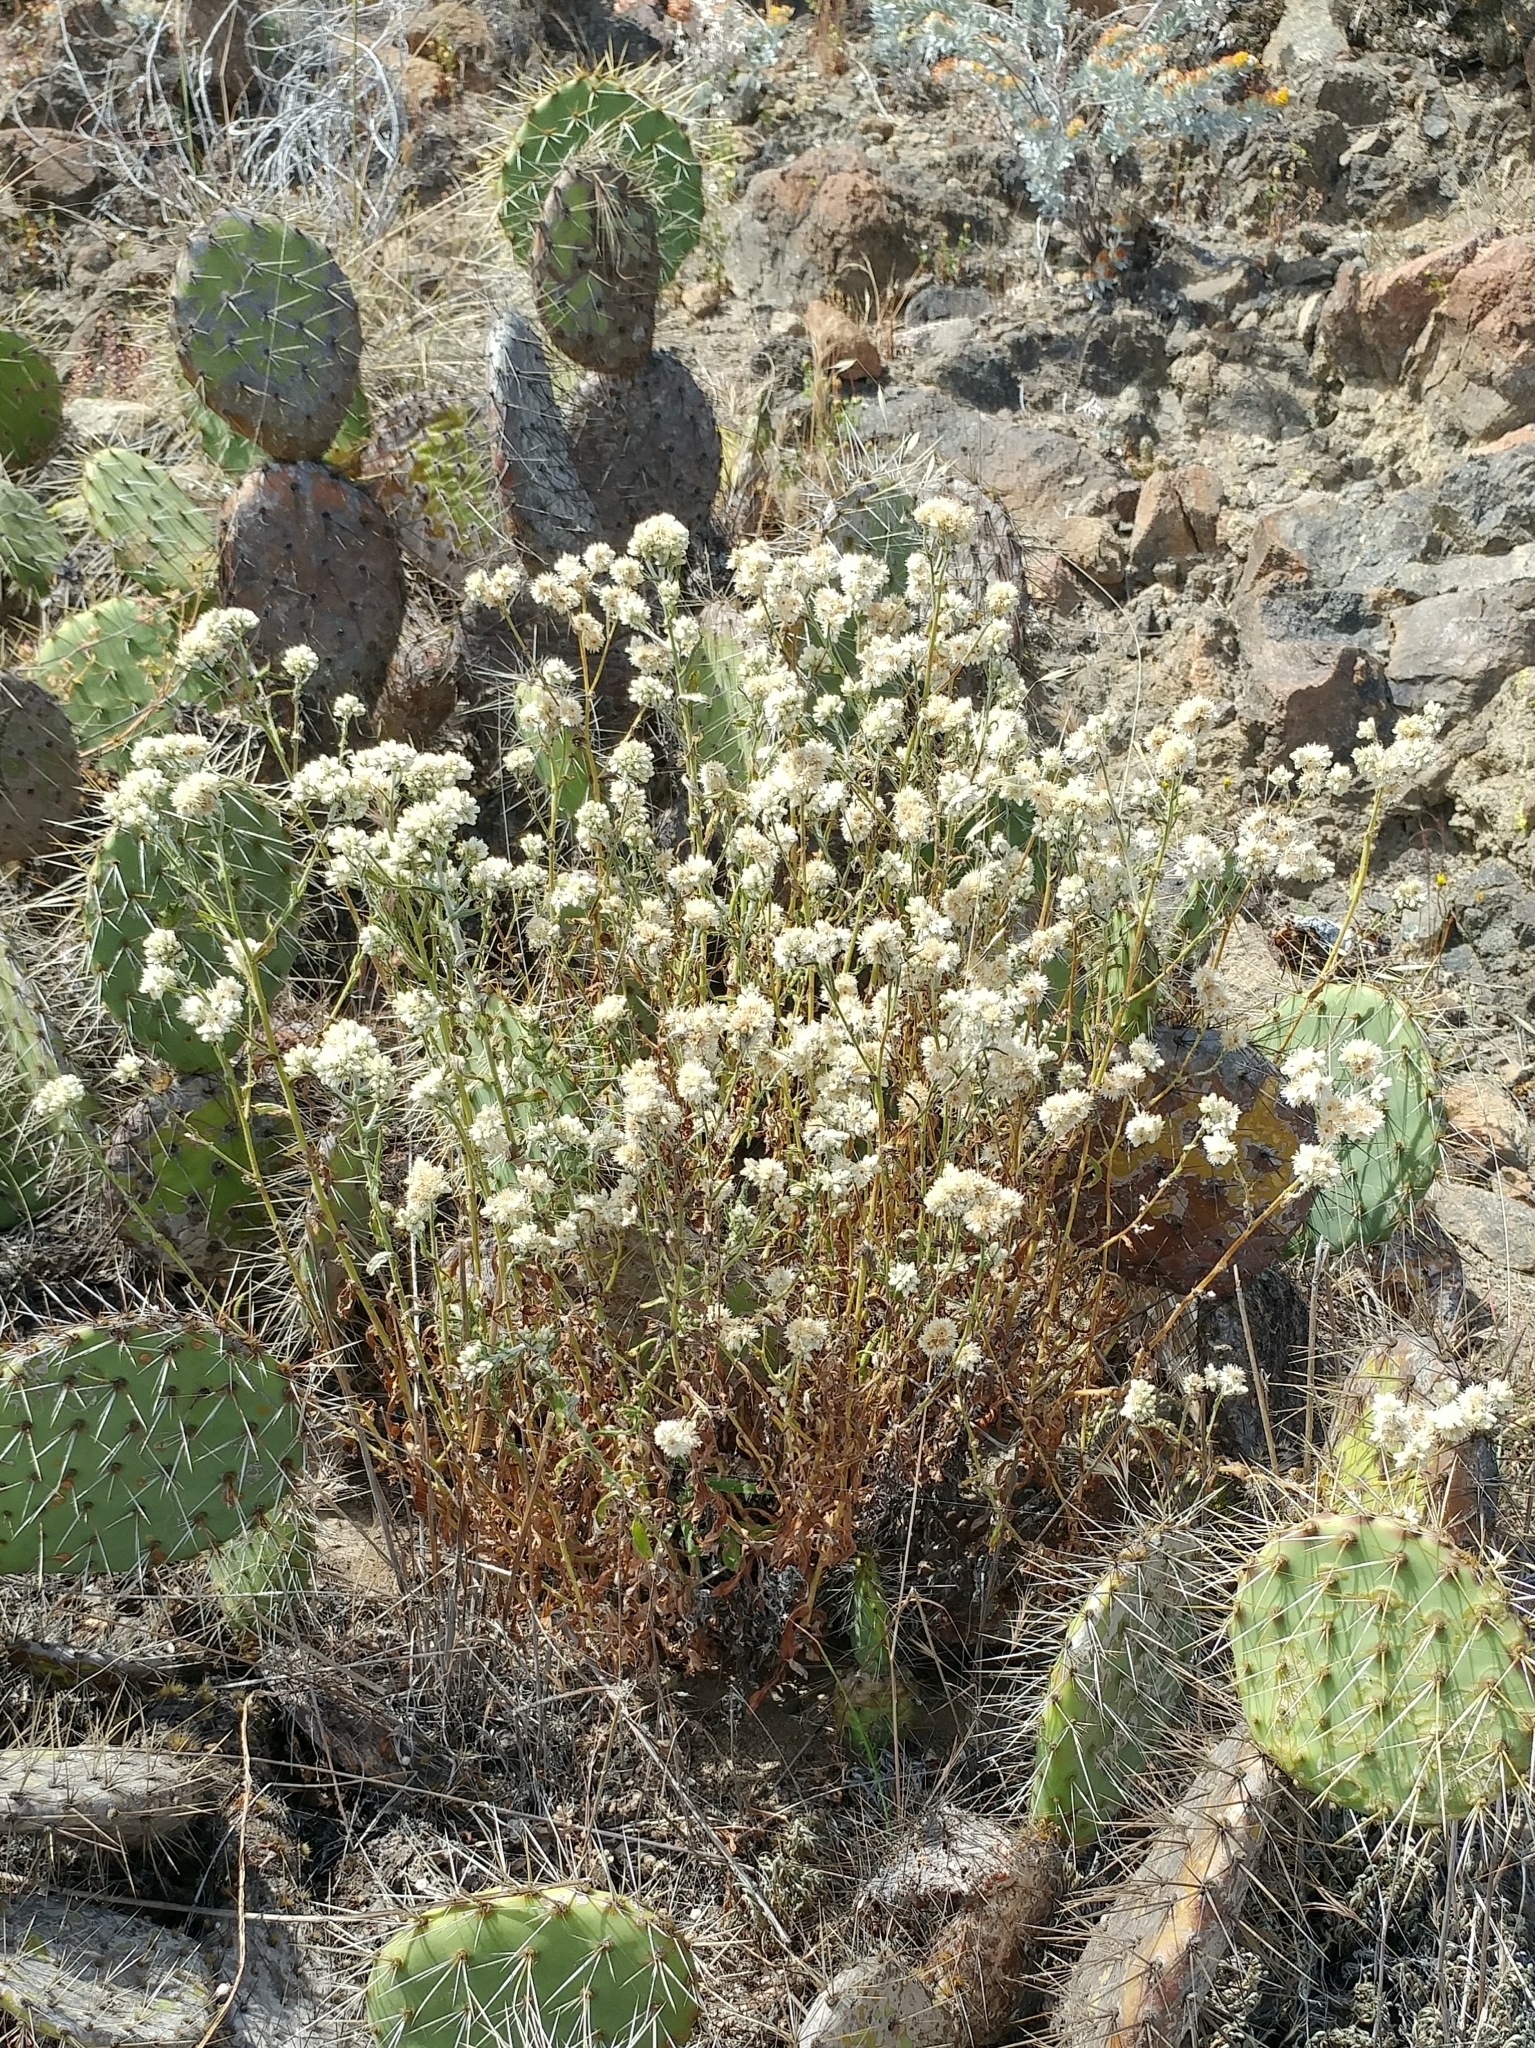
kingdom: Plantae
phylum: Tracheophyta
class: Magnoliopsida
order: Asterales
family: Asteraceae
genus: Pseudognaphalium
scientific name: Pseudognaphalium biolettii
